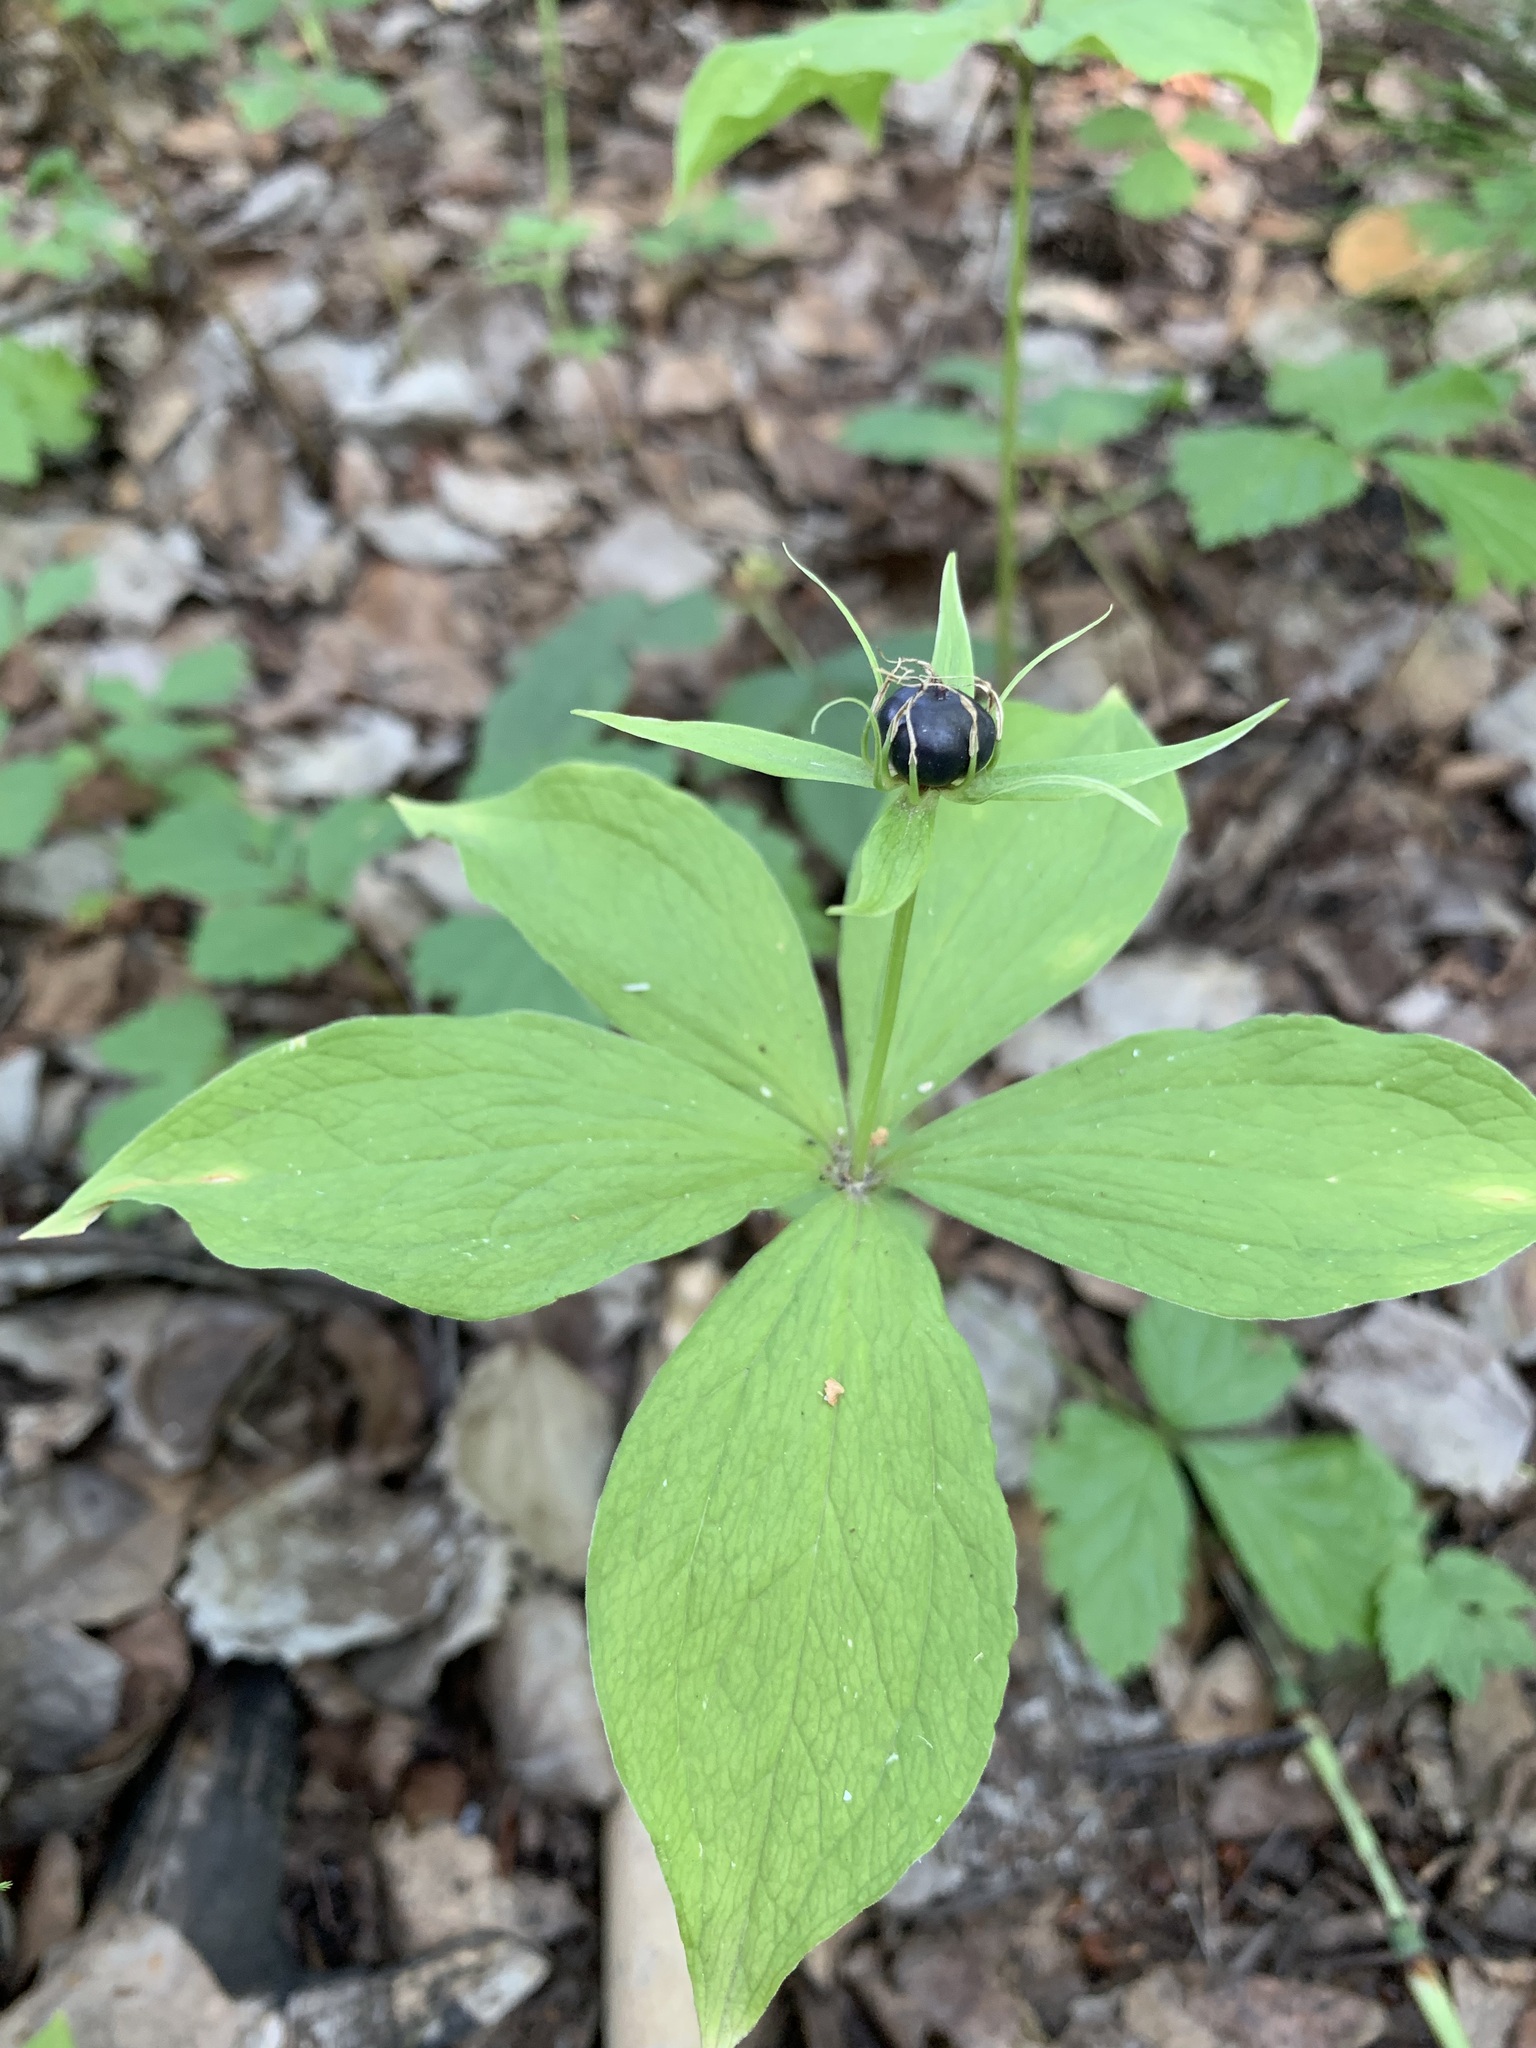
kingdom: Plantae
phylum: Tracheophyta
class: Liliopsida
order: Liliales
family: Melanthiaceae
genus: Paris
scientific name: Paris quadrifolia
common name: Herb-paris
